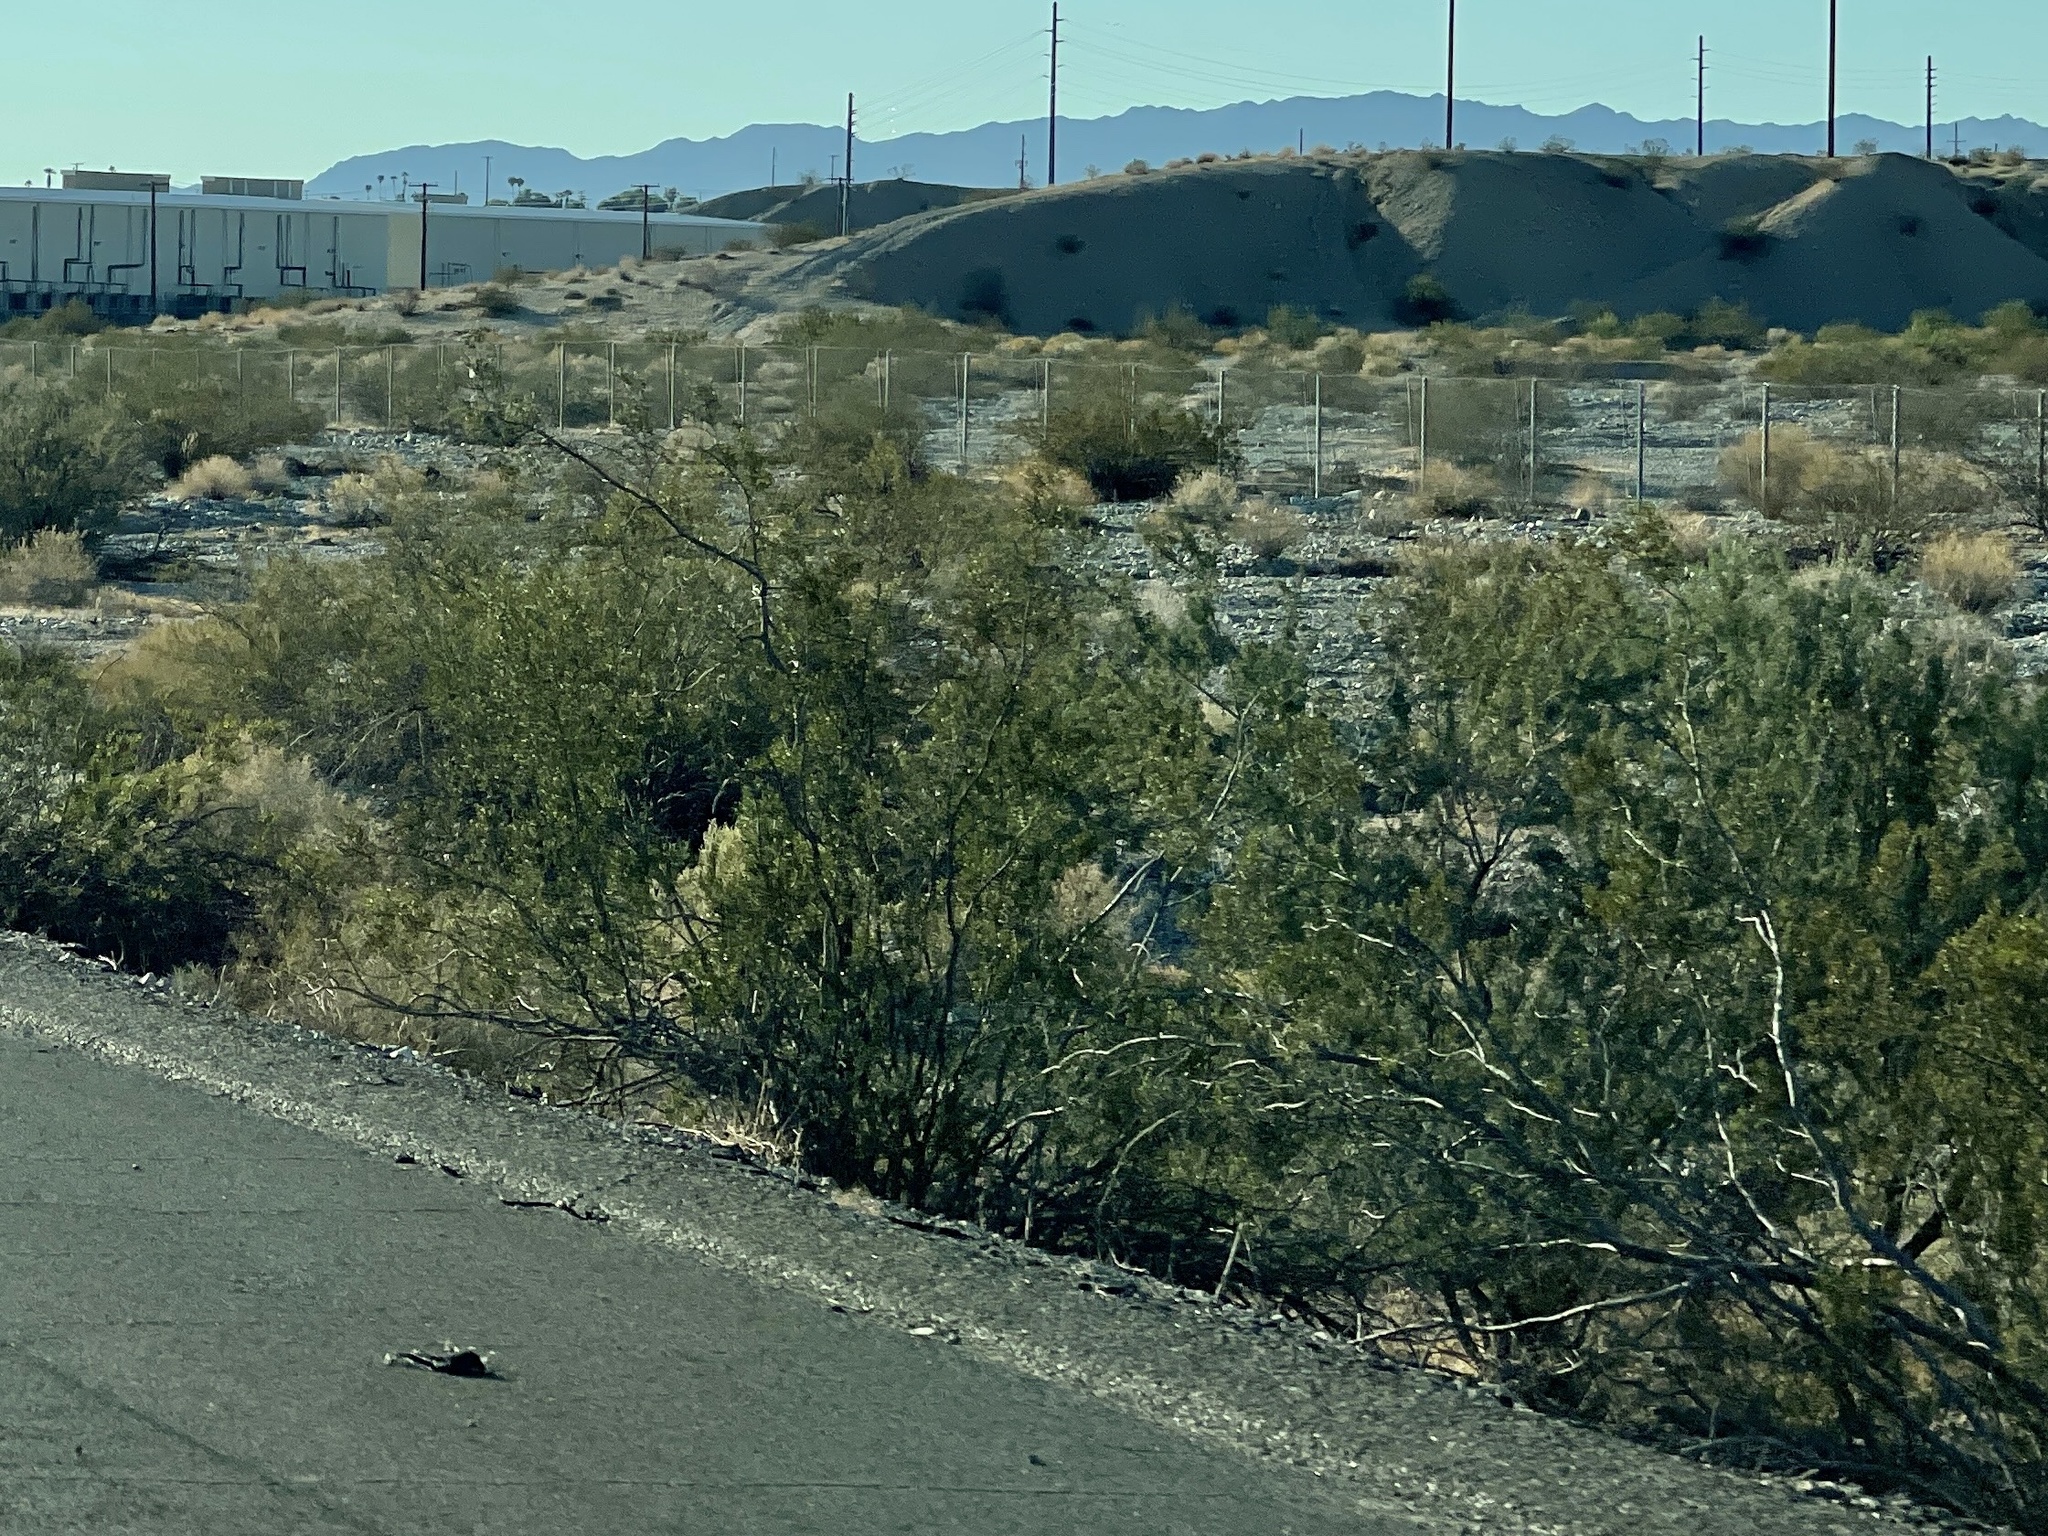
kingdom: Plantae
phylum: Tracheophyta
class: Magnoliopsida
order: Zygophyllales
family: Zygophyllaceae
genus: Larrea
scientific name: Larrea tridentata
